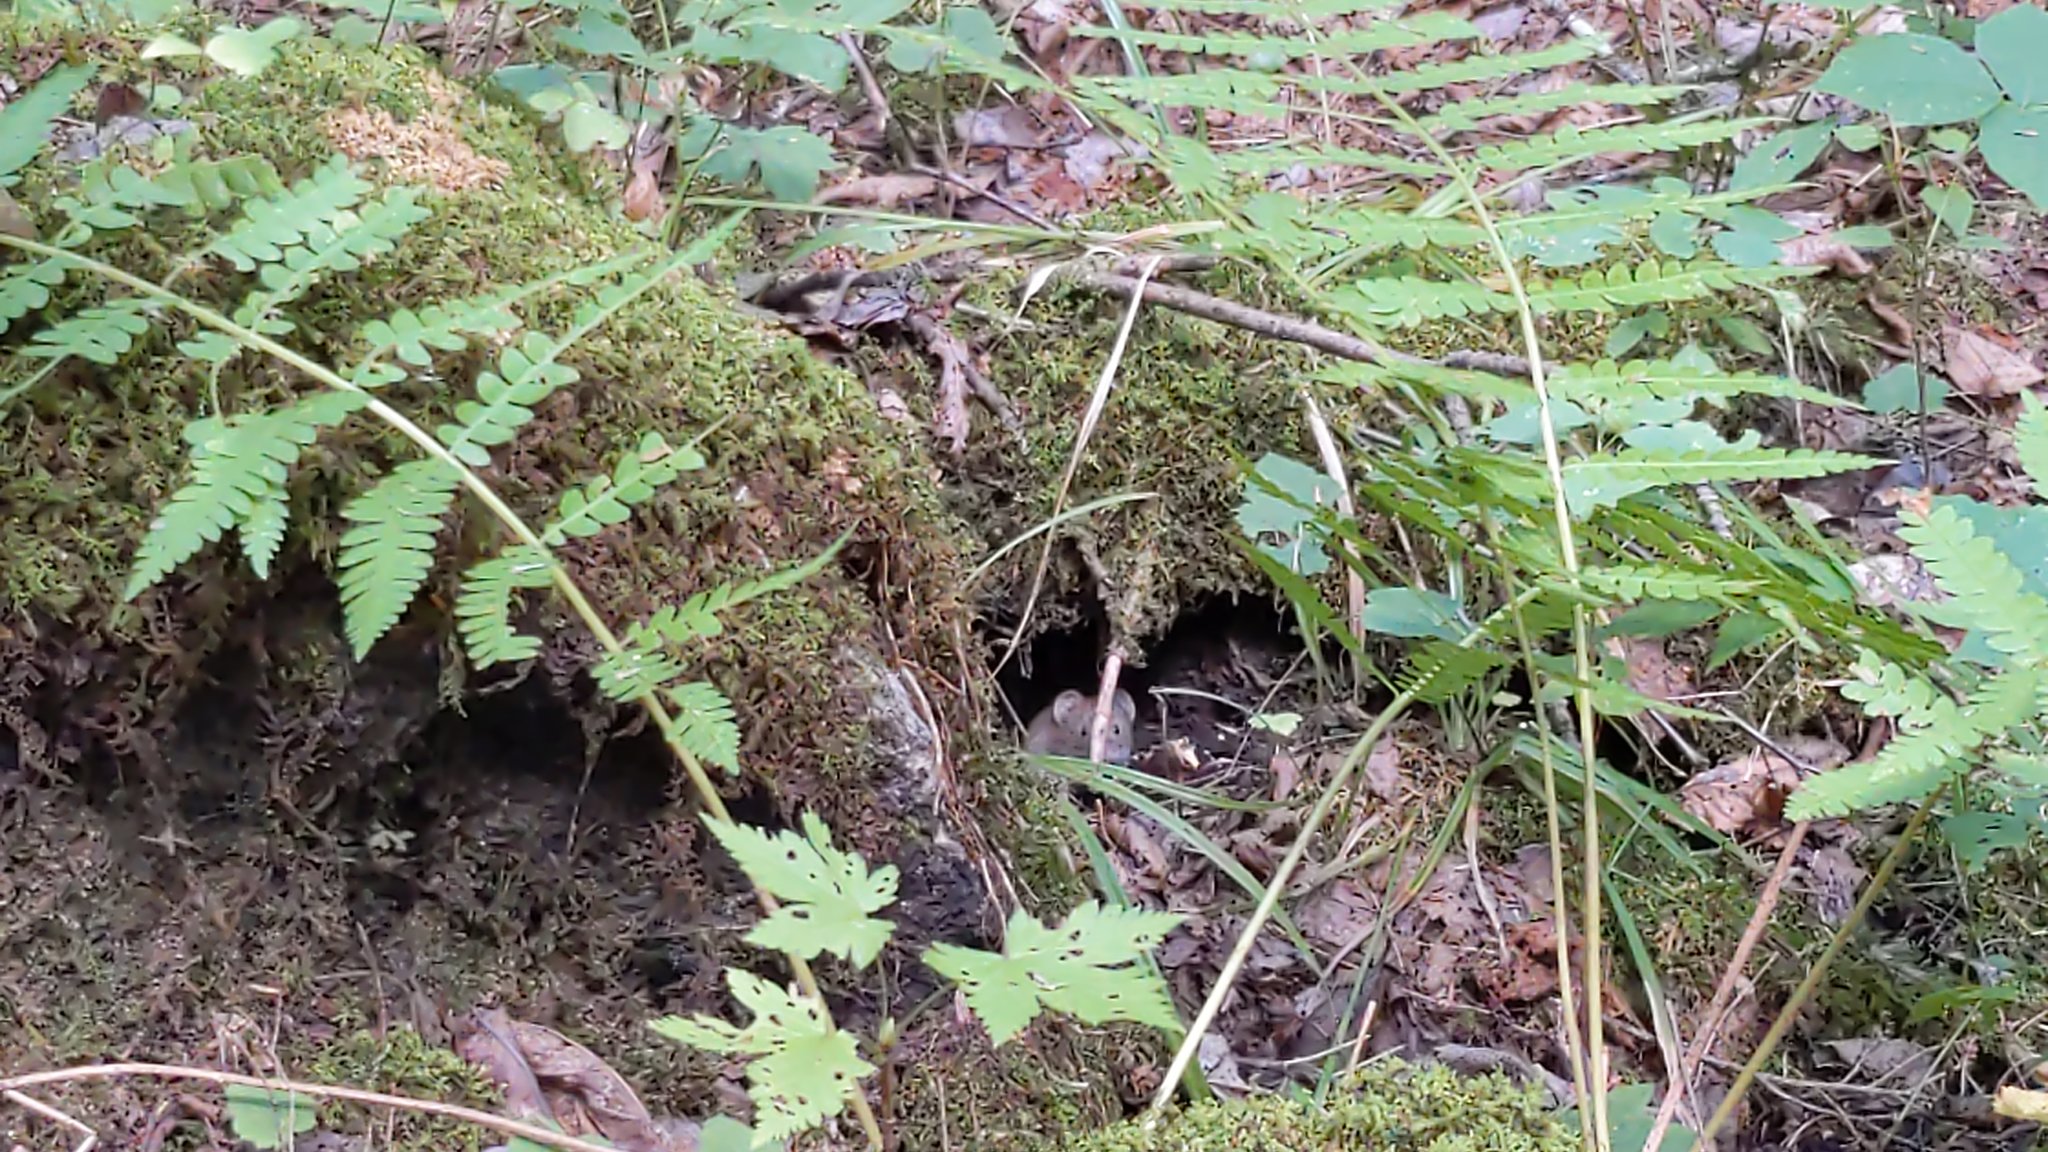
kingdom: Animalia
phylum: Chordata
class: Mammalia
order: Rodentia
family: Cricetidae
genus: Myodes
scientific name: Myodes gapperi
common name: Southern red-backed vole
